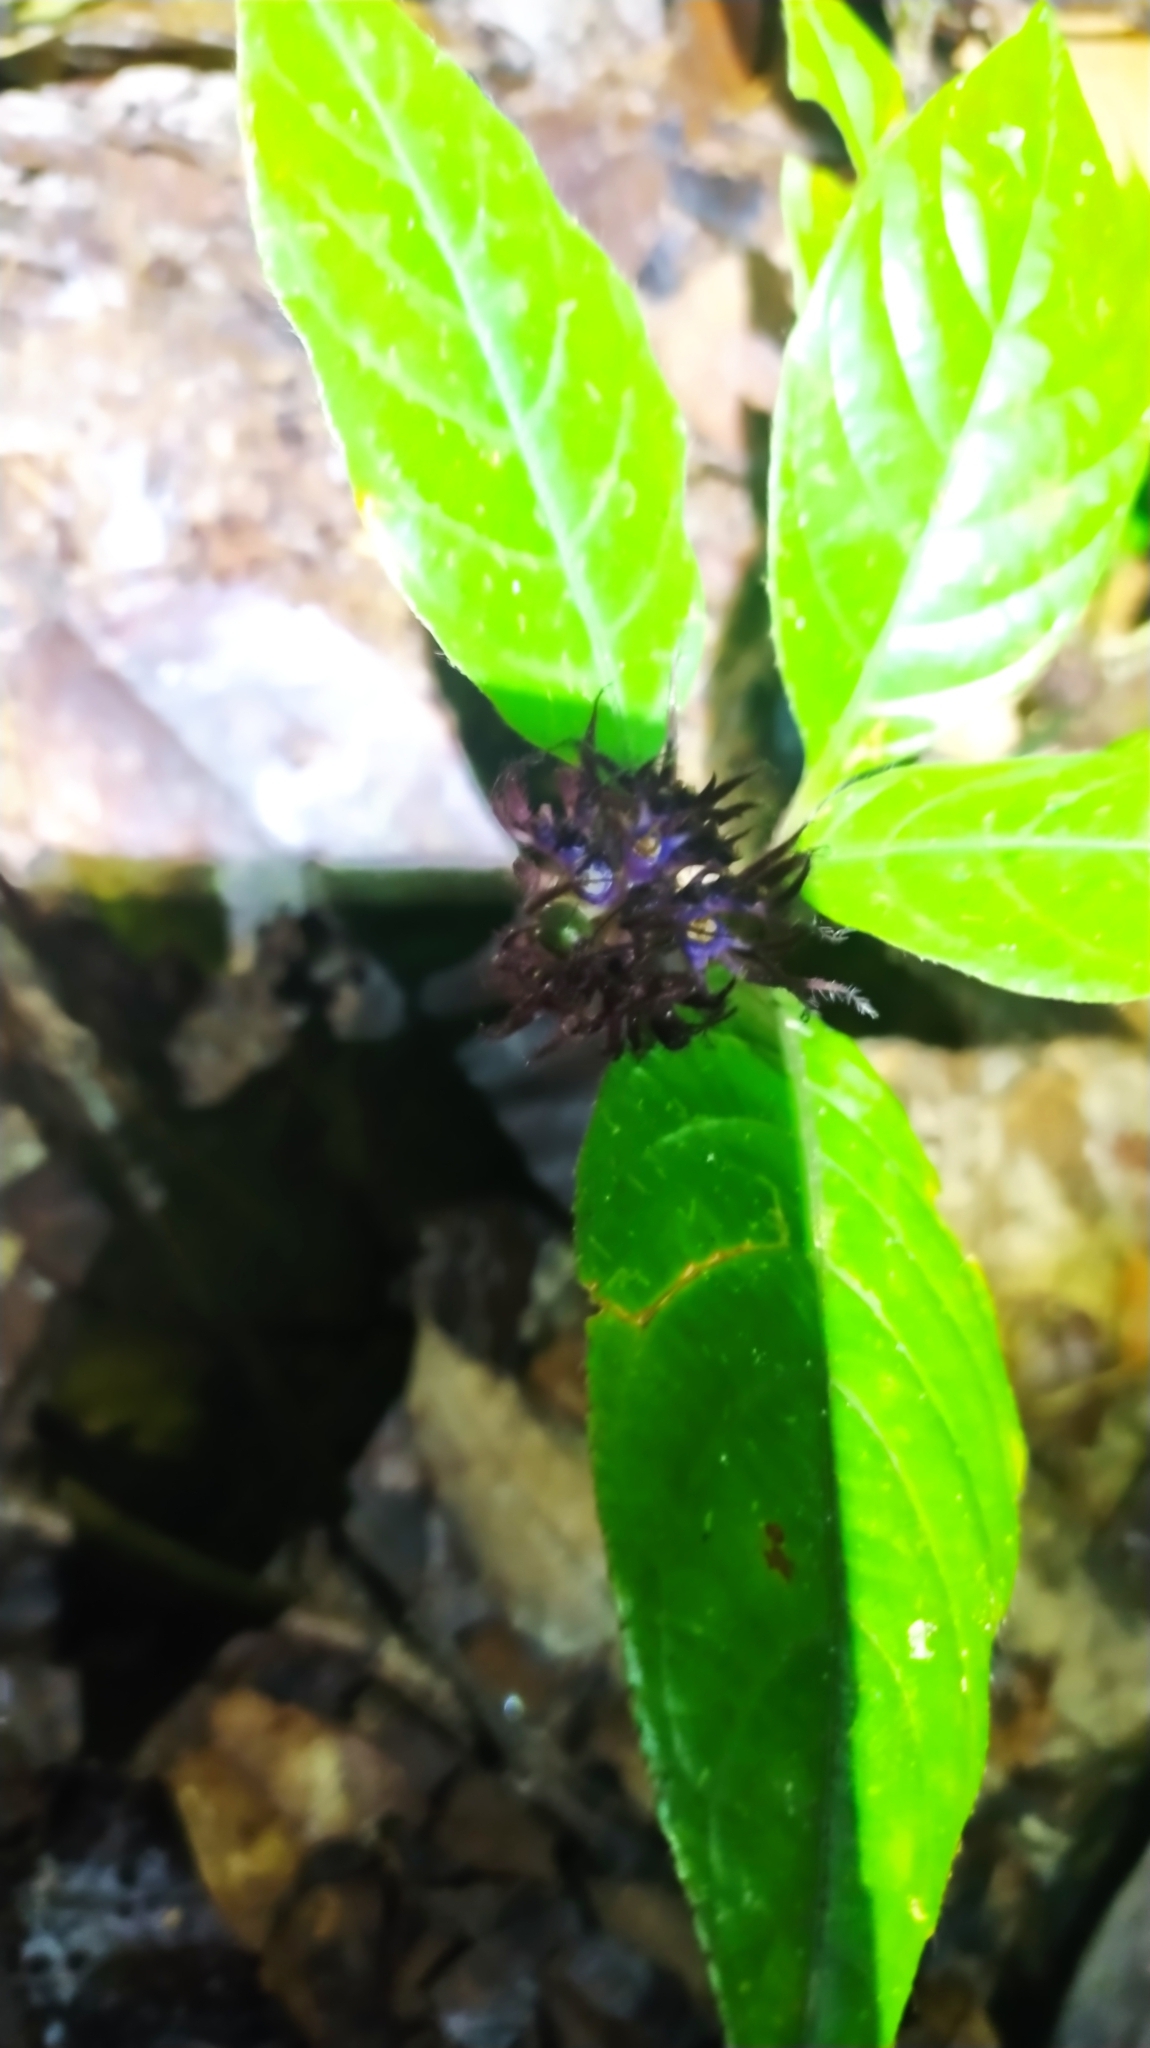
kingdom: Plantae
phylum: Tracheophyta
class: Magnoliopsida
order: Gentianales
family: Rubiaceae
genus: Palicourea
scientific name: Palicourea glabra
